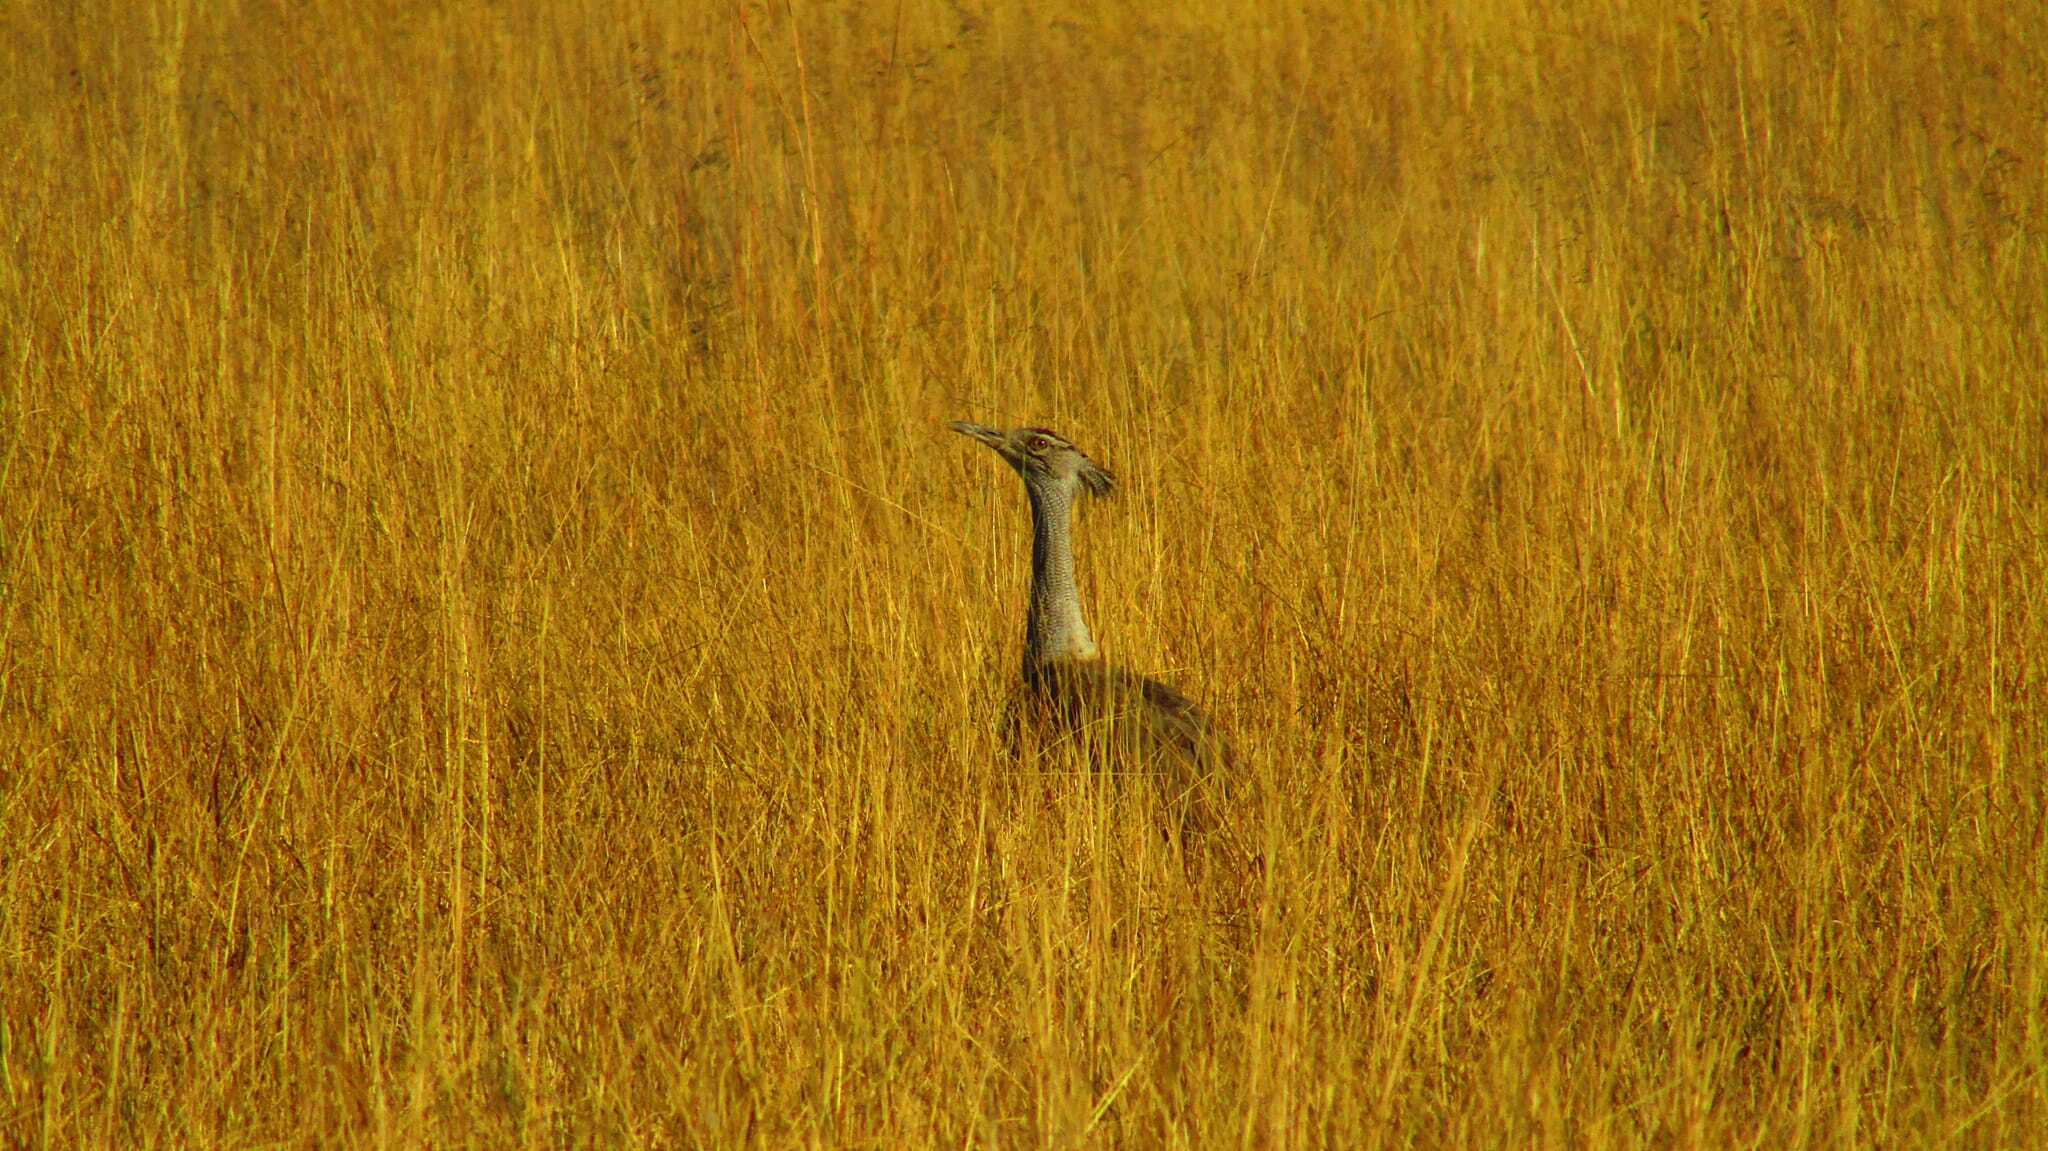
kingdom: Animalia
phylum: Chordata
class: Aves
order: Otidiformes
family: Otididae
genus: Ardeotis
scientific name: Ardeotis kori
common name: Kori bustard
